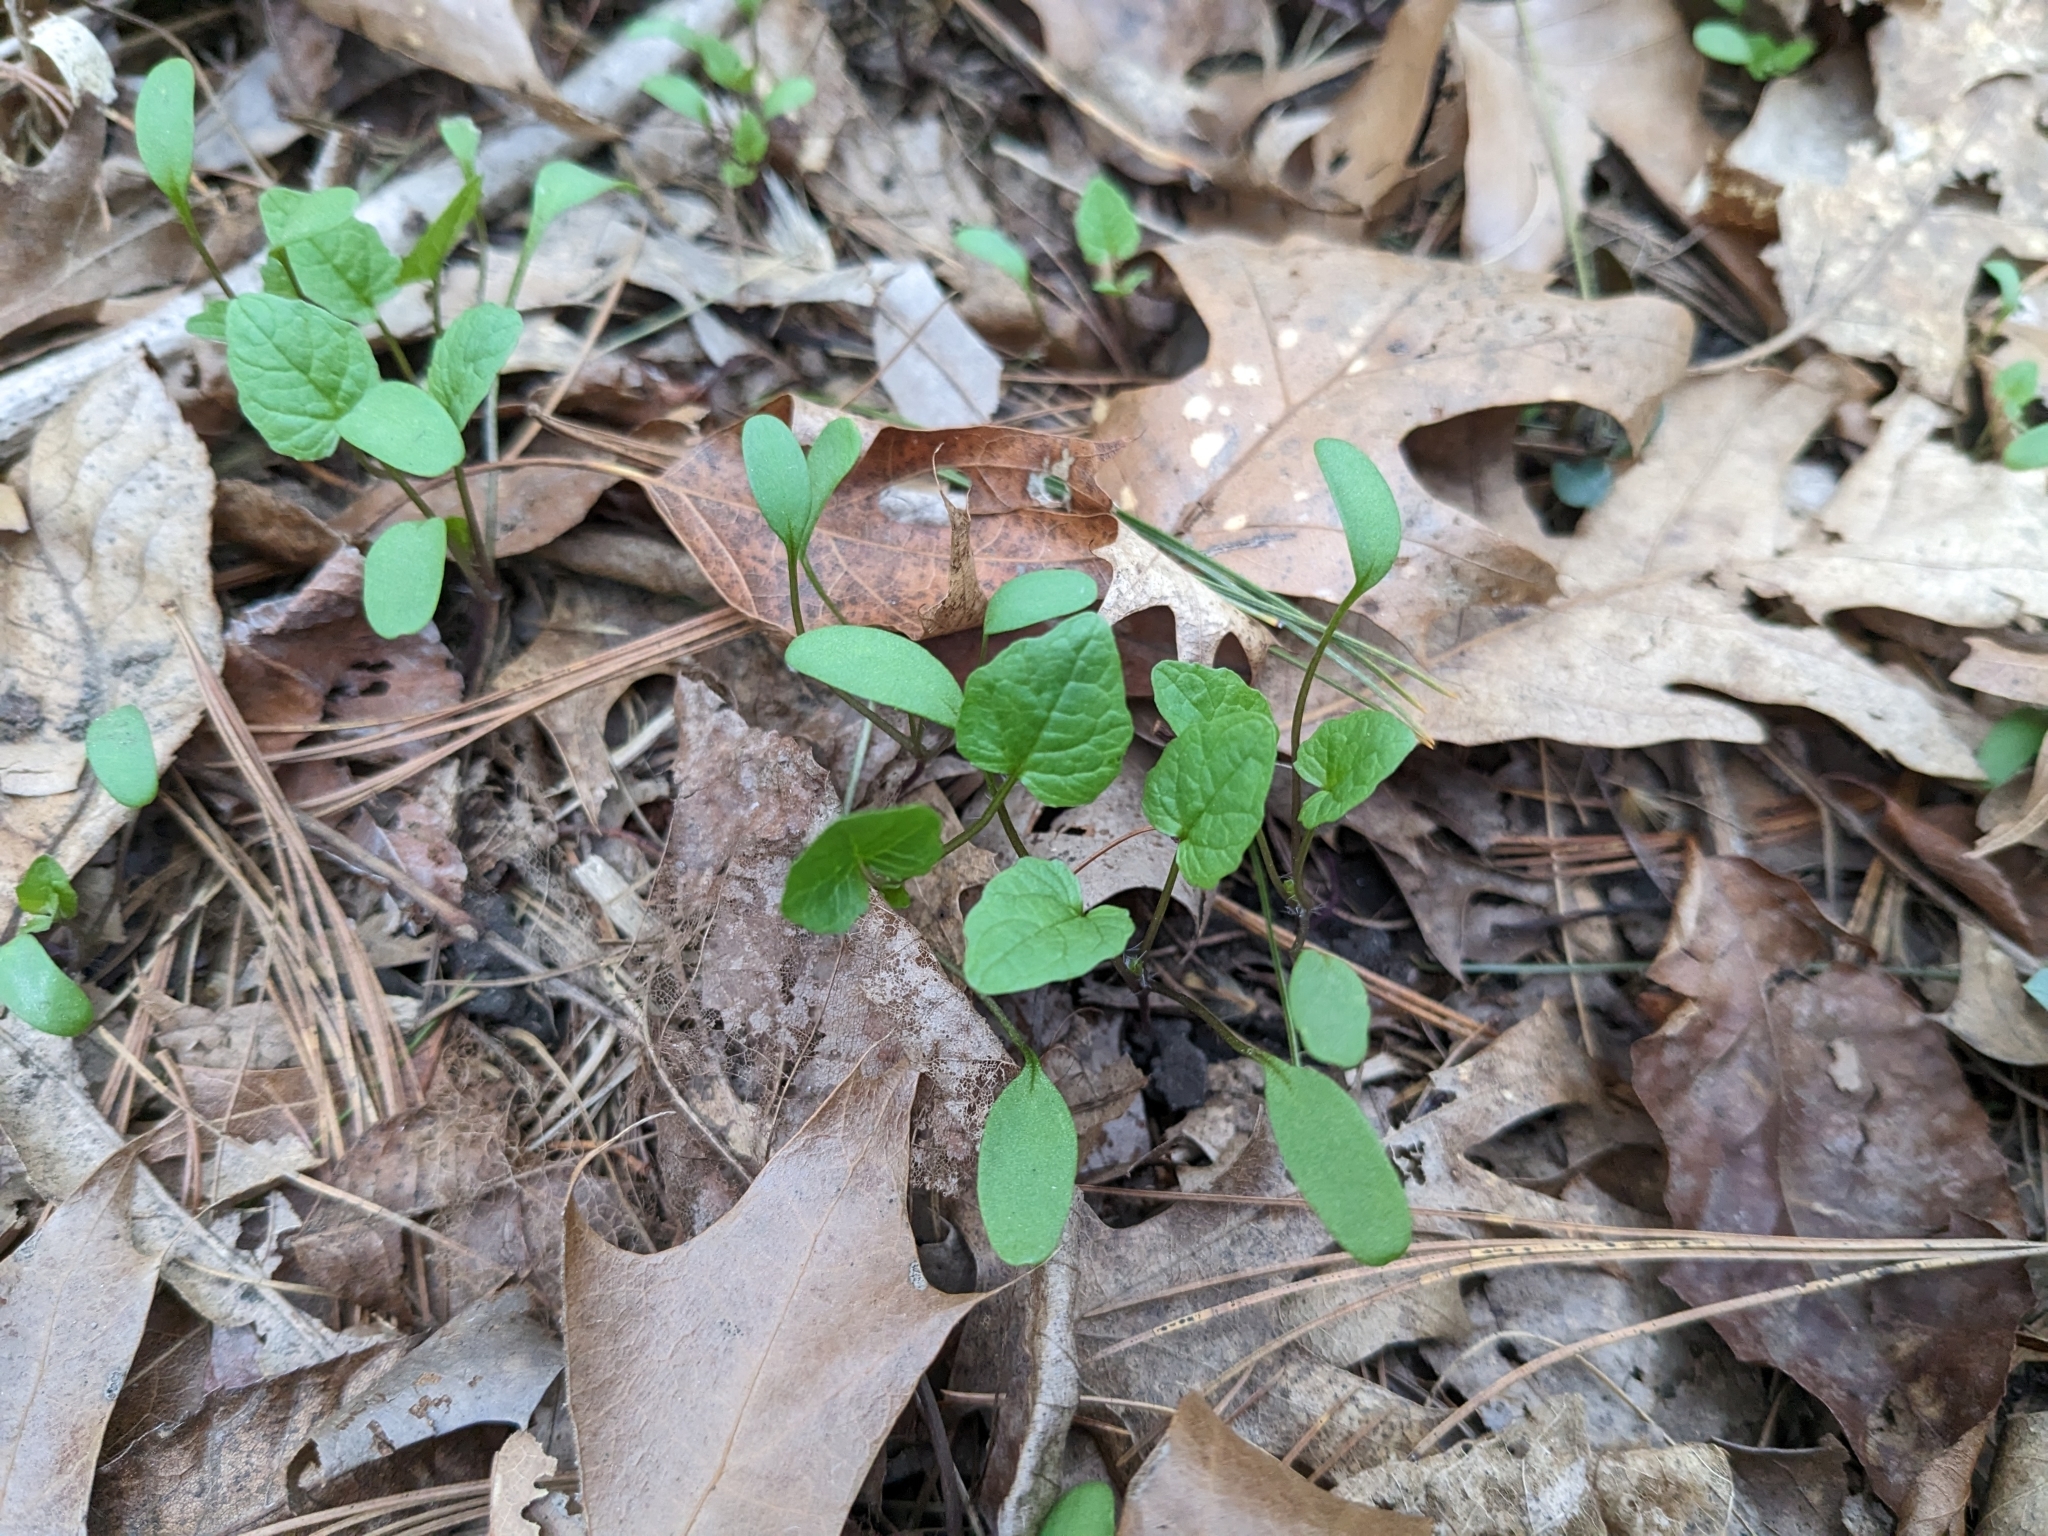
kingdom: Plantae
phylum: Tracheophyta
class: Magnoliopsida
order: Brassicales
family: Brassicaceae
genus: Alliaria
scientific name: Alliaria petiolata
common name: Garlic mustard
